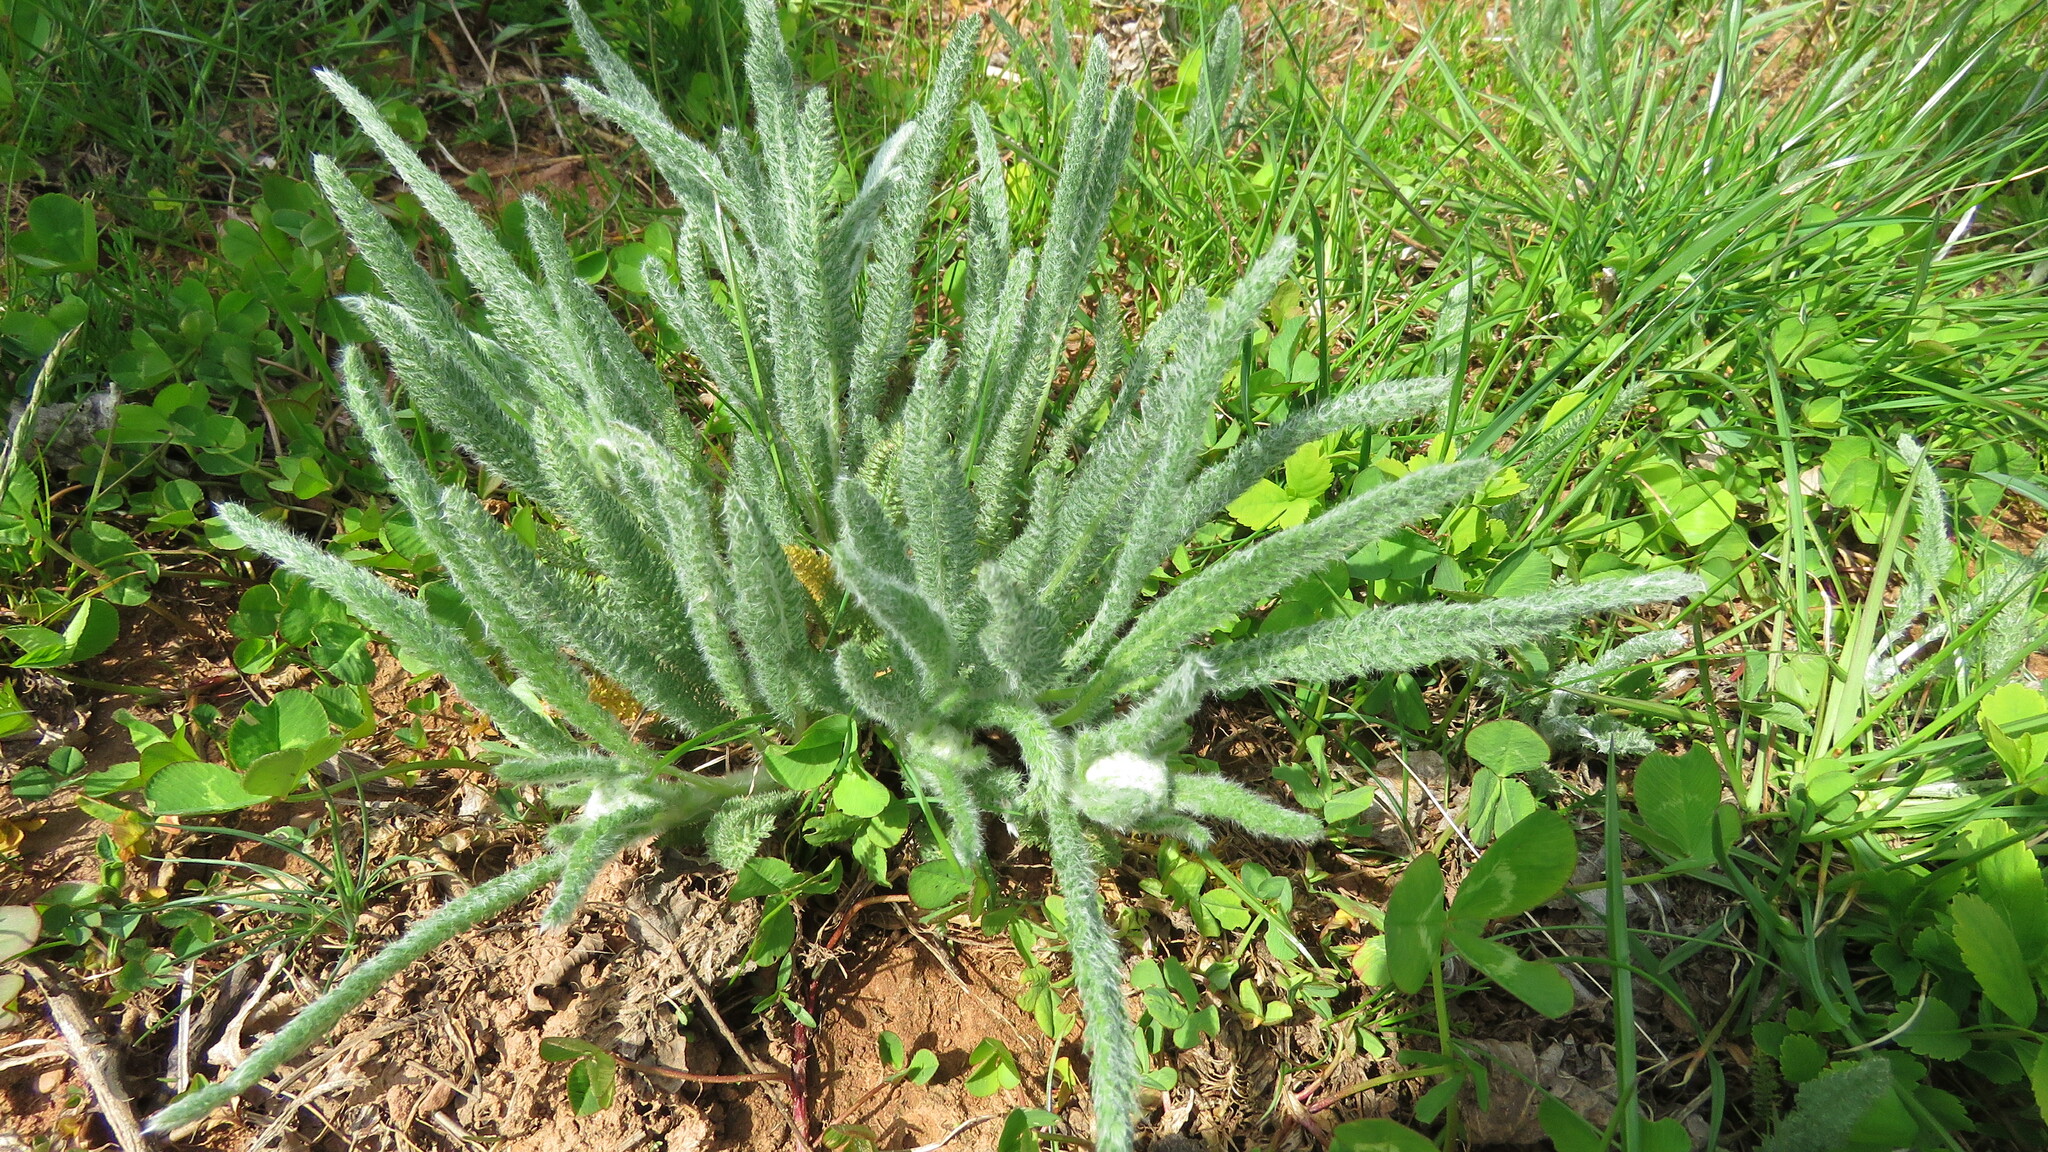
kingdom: Plantae
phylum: Tracheophyta
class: Magnoliopsida
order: Asterales
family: Asteraceae
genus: Achillea
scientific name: Achillea millefolium
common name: Yarrow
